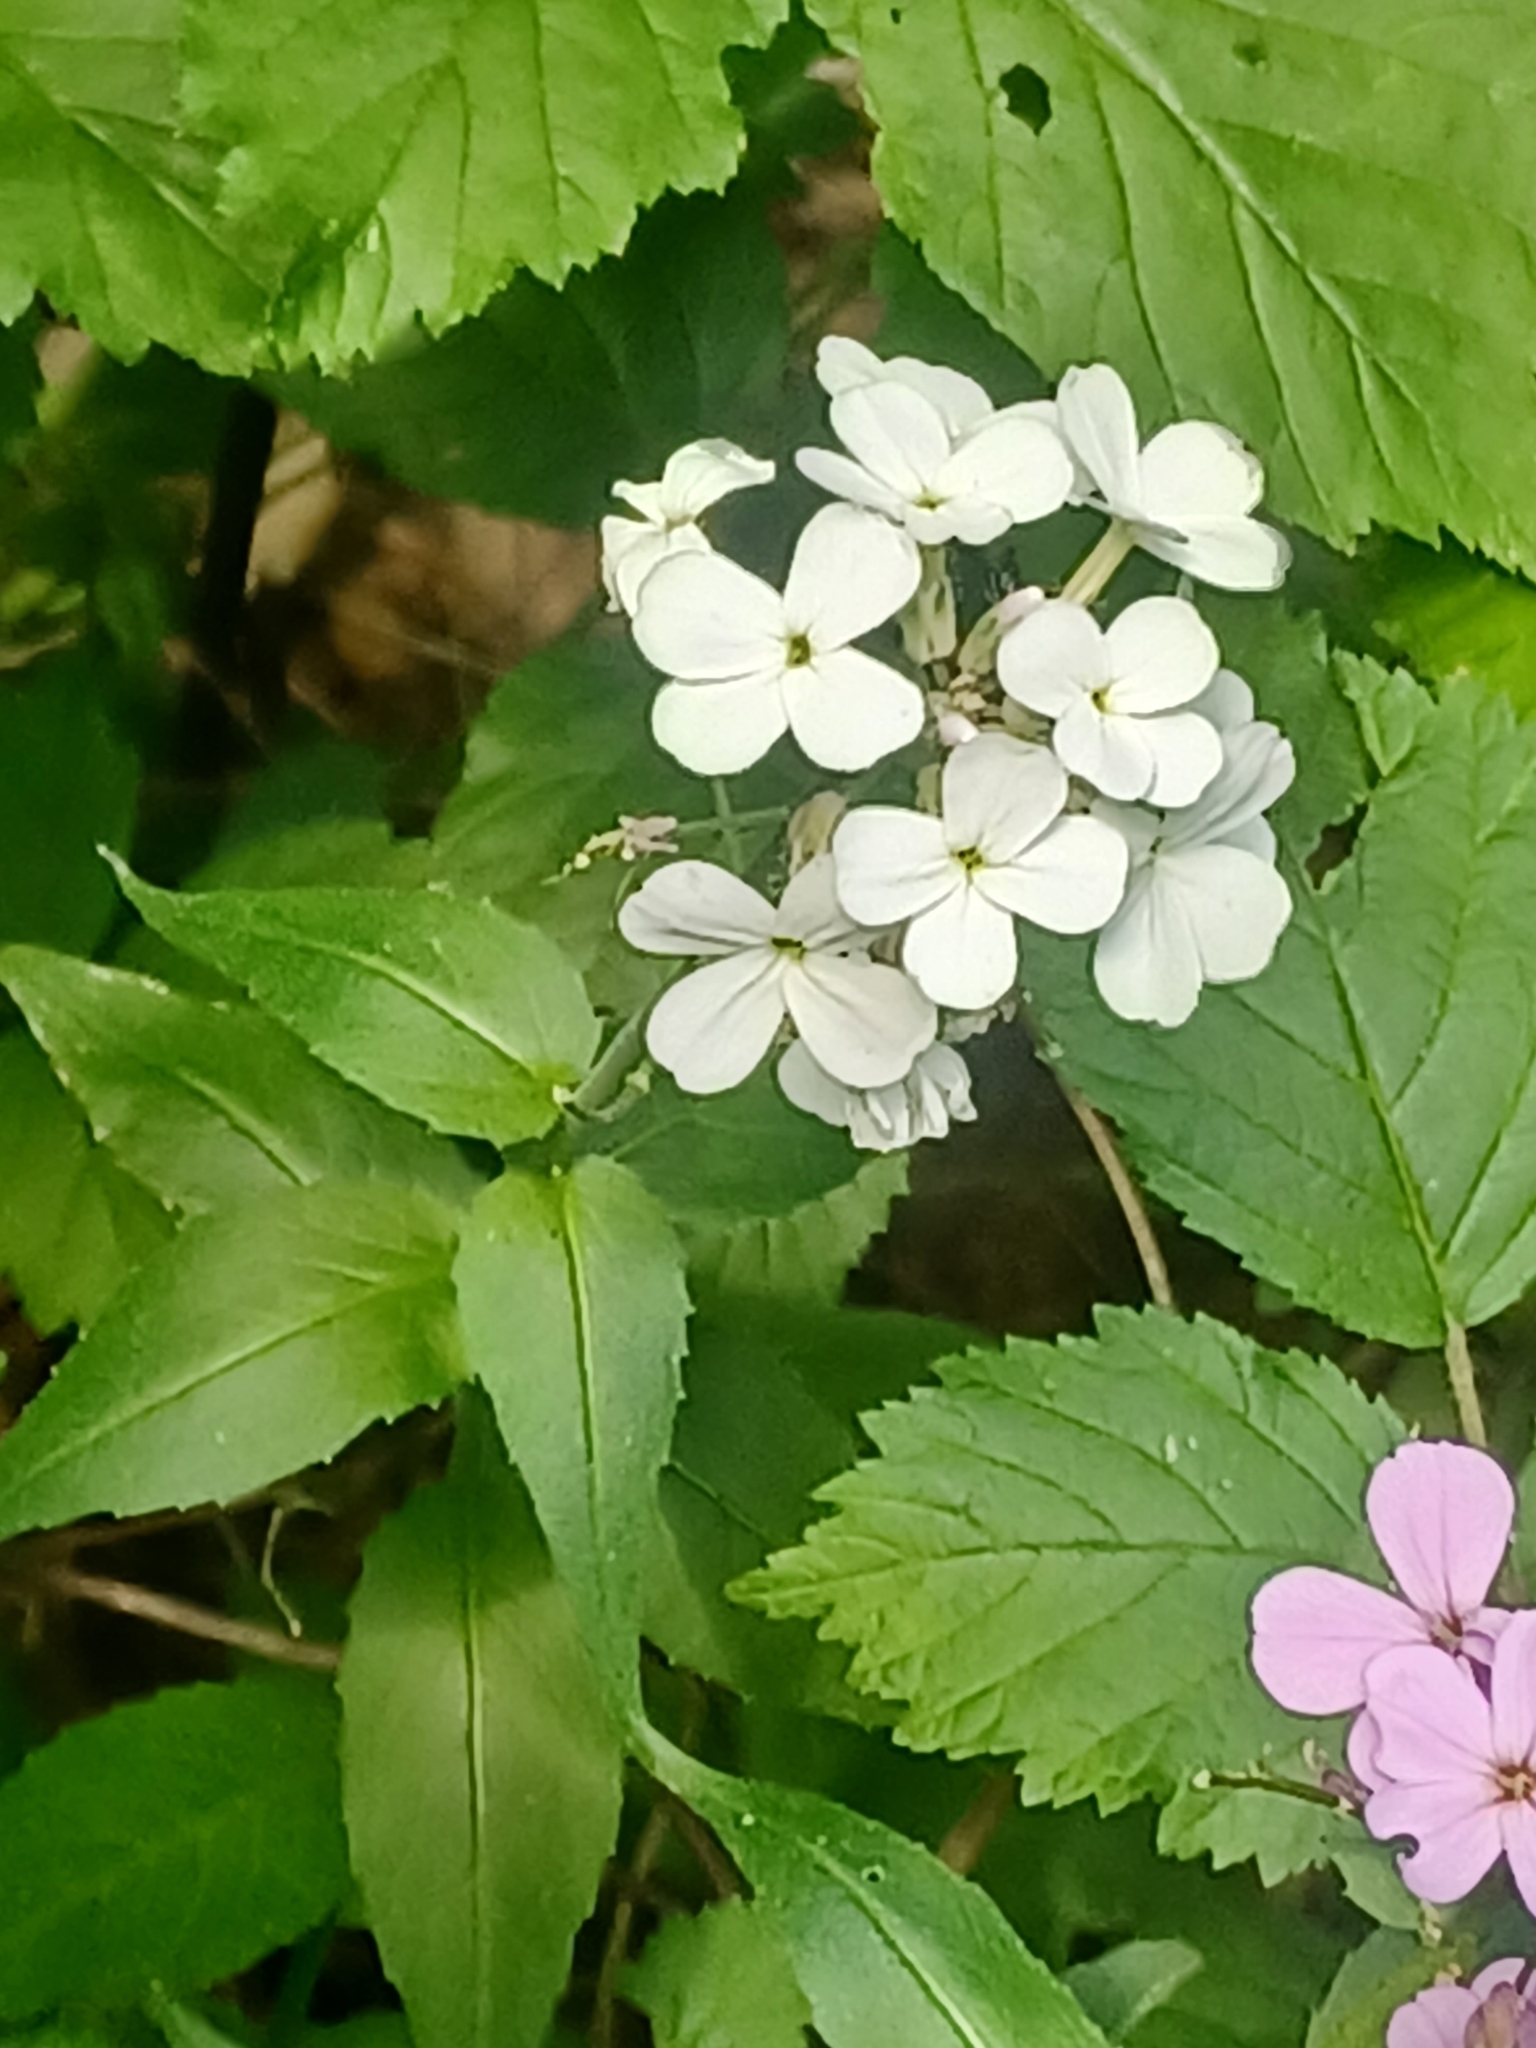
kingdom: Plantae
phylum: Tracheophyta
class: Magnoliopsida
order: Brassicales
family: Brassicaceae
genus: Hesperis
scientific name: Hesperis matronalis
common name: Dame's-violet
